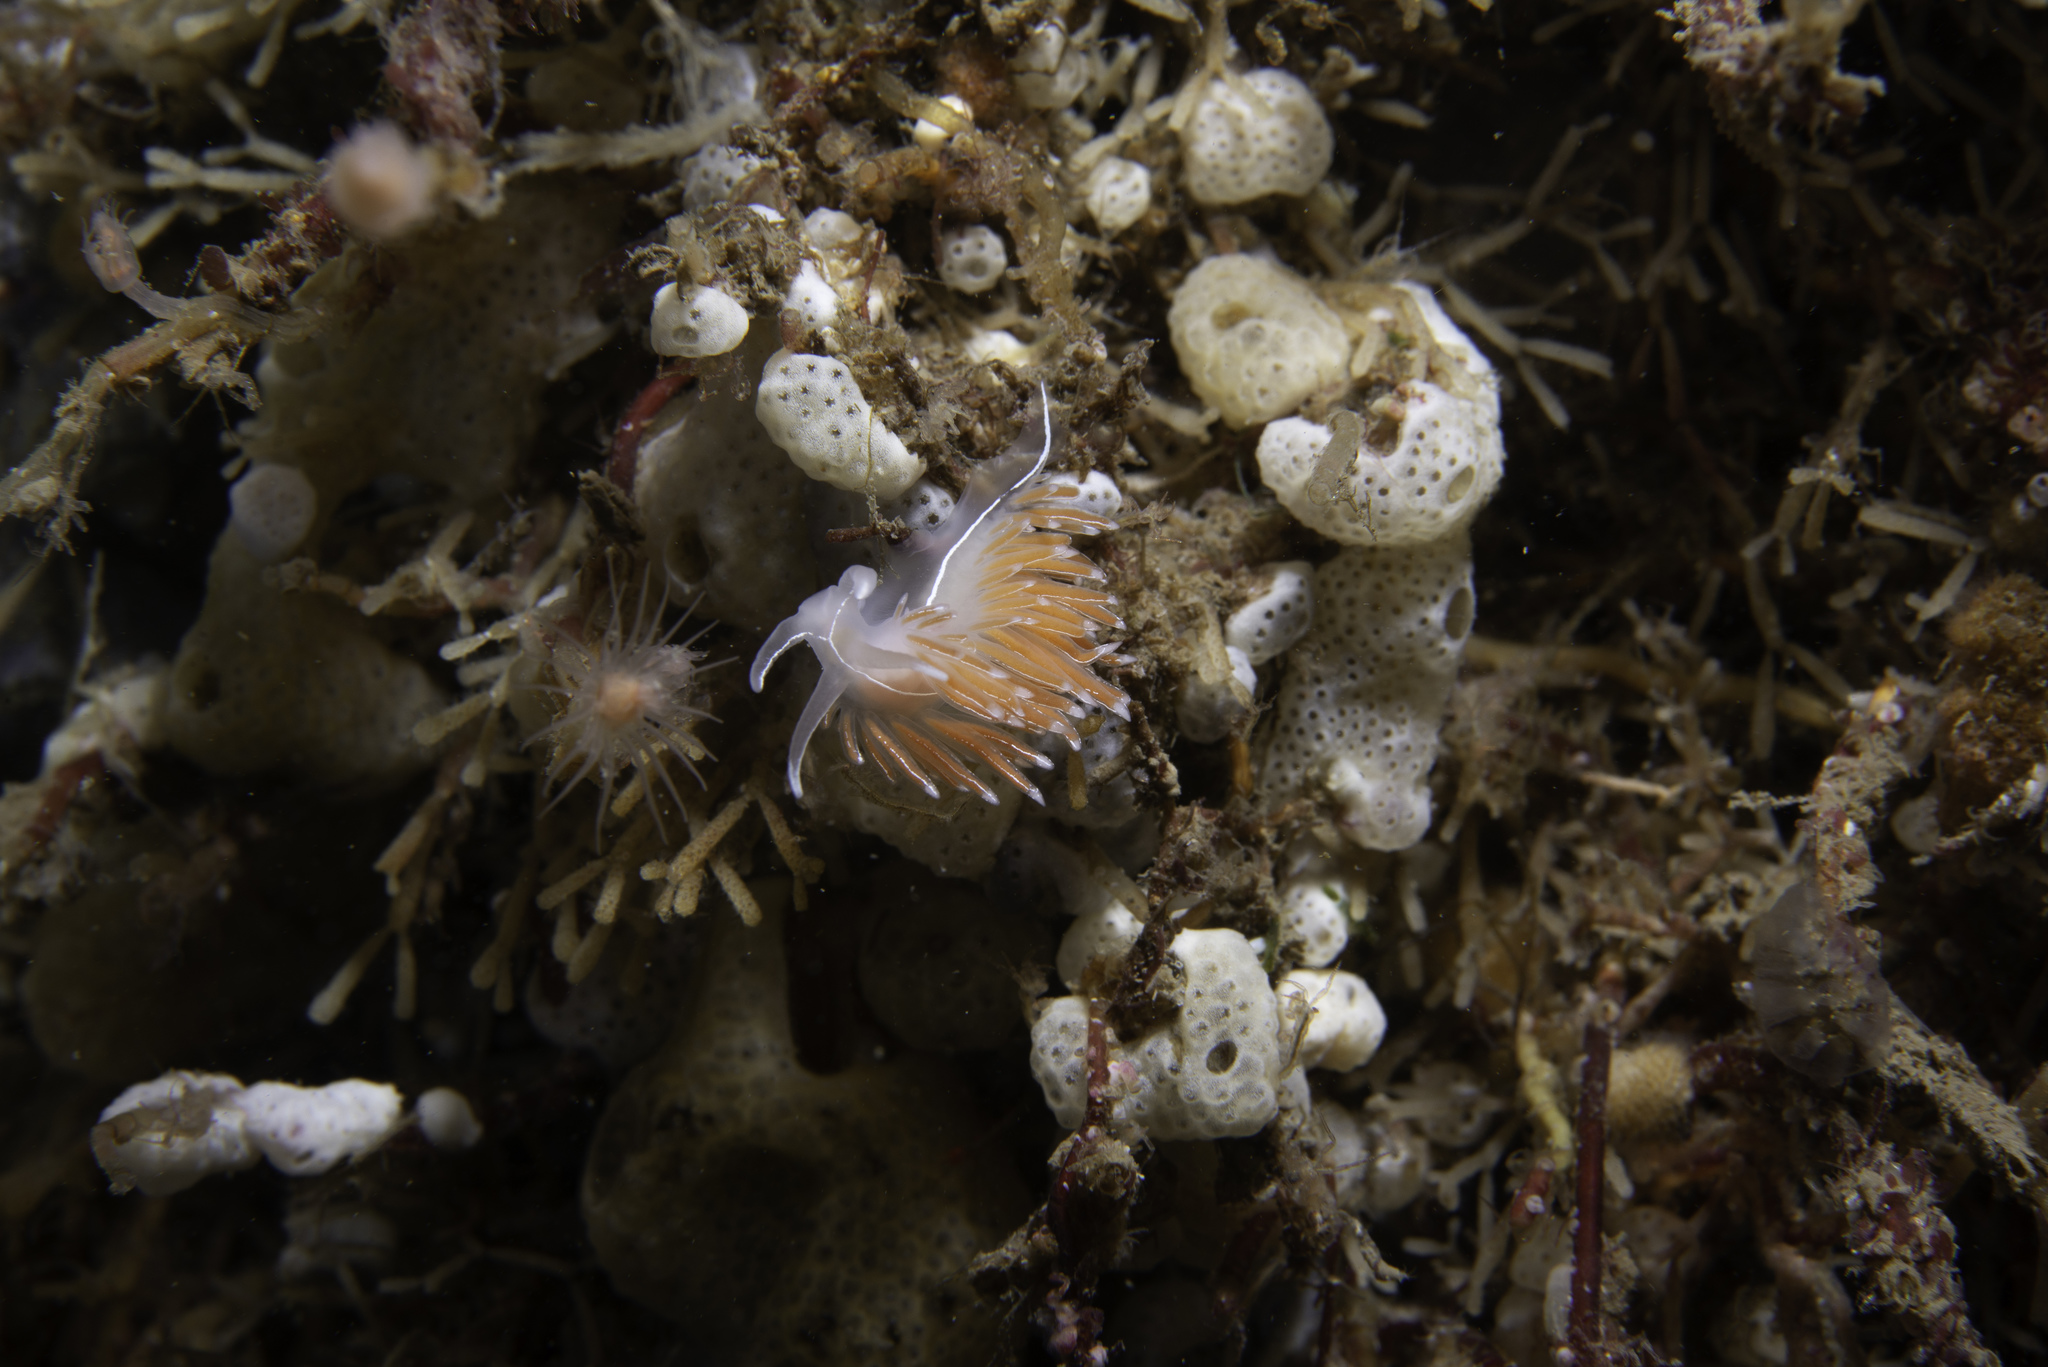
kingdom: Animalia
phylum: Mollusca
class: Gastropoda
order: Nudibranchia
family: Coryphellidae
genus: Coryphella
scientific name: Coryphella lineata
